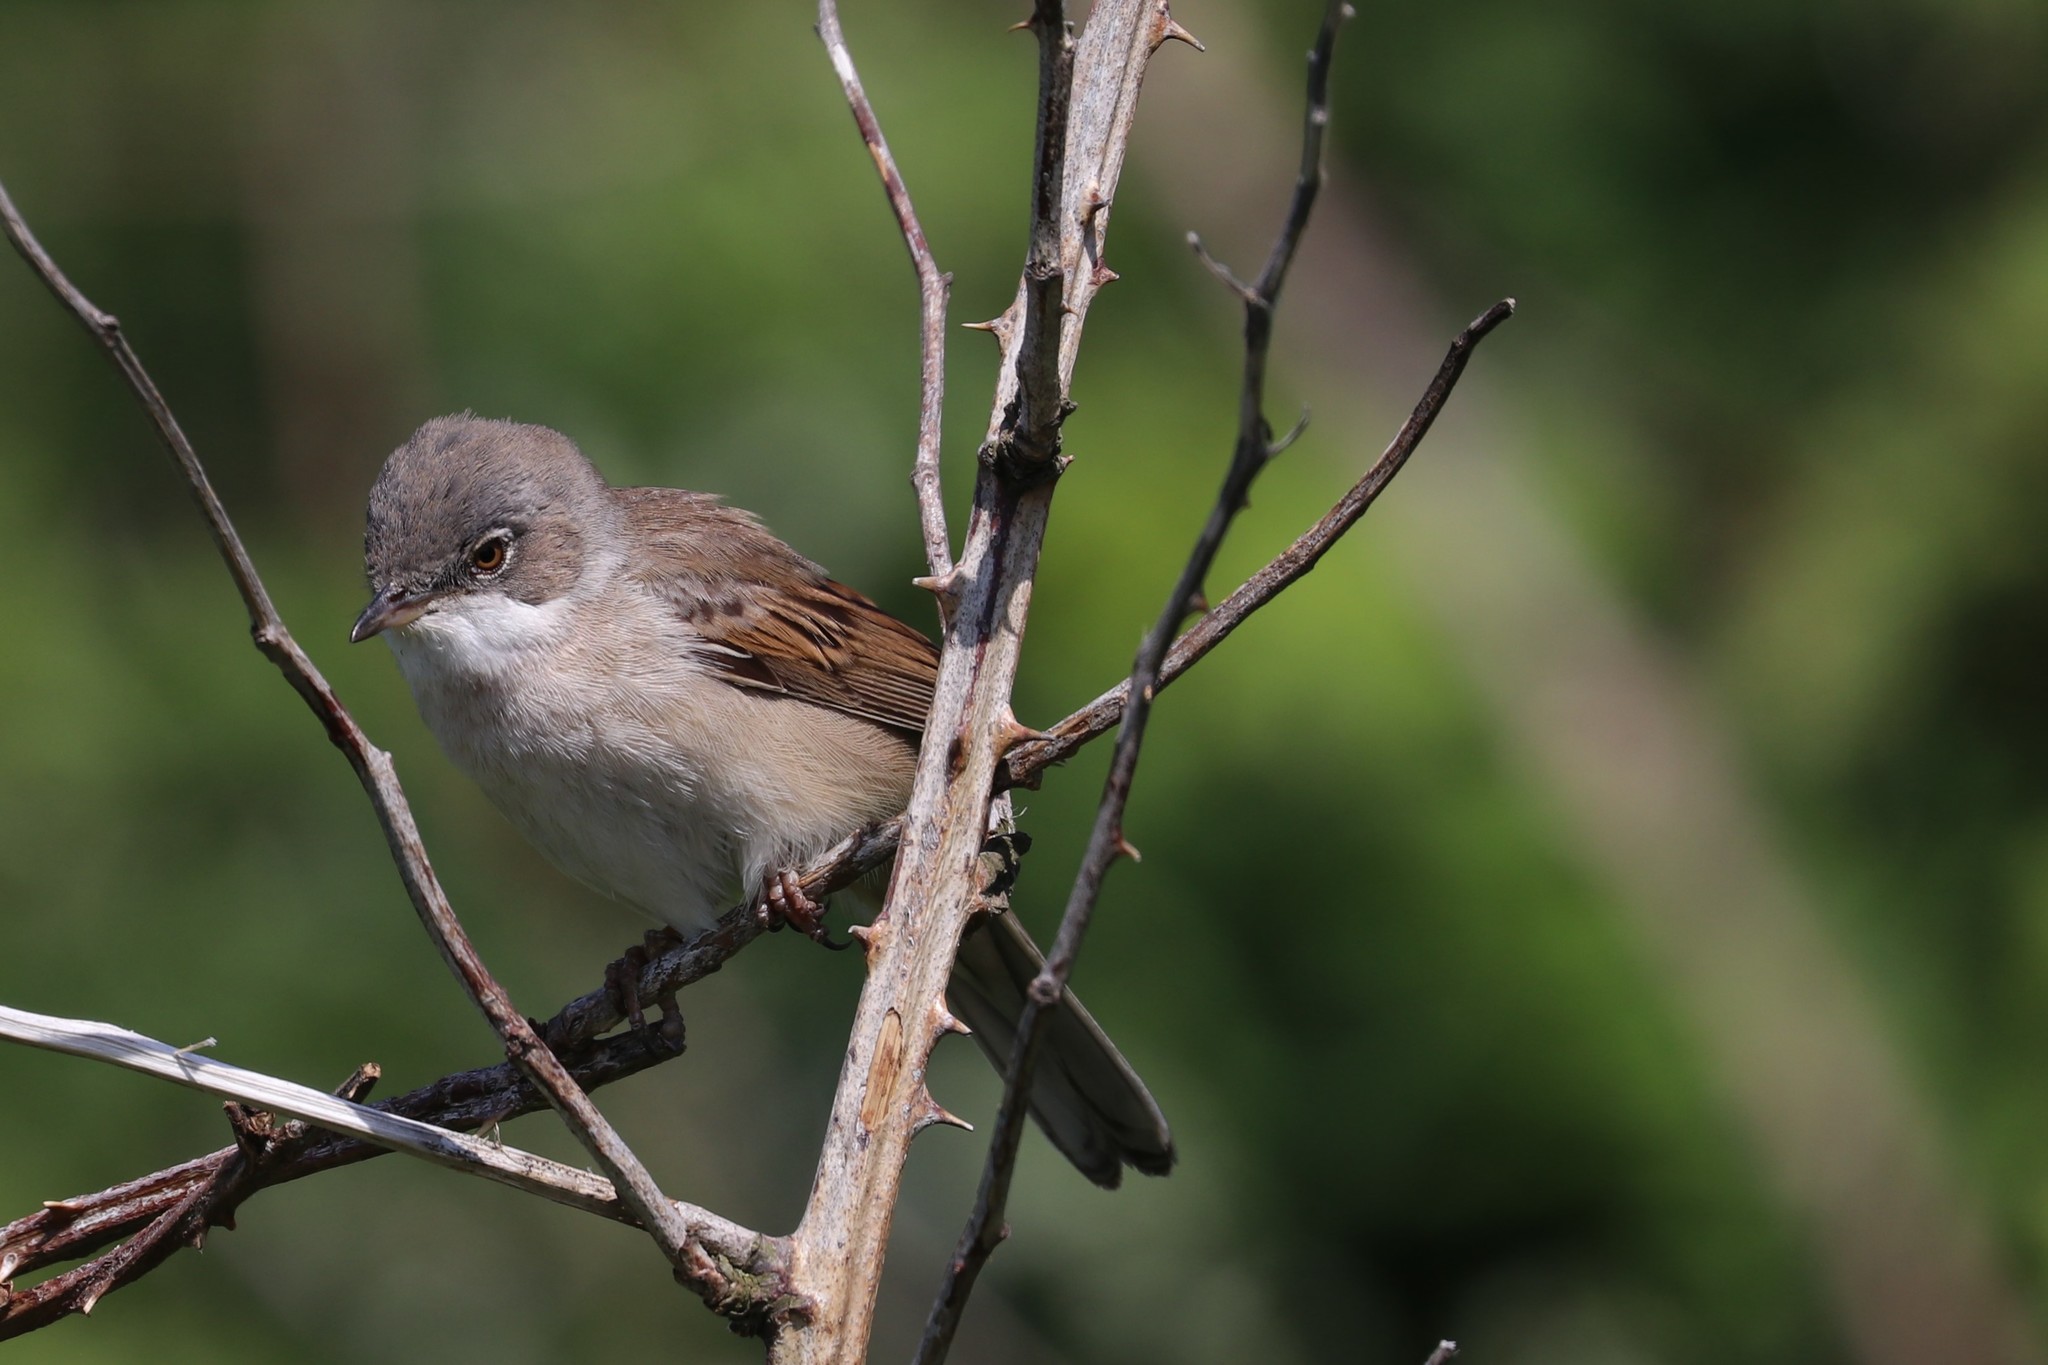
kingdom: Animalia
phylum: Chordata
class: Aves
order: Passeriformes
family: Sylviidae
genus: Sylvia
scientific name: Sylvia communis
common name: Common whitethroat
